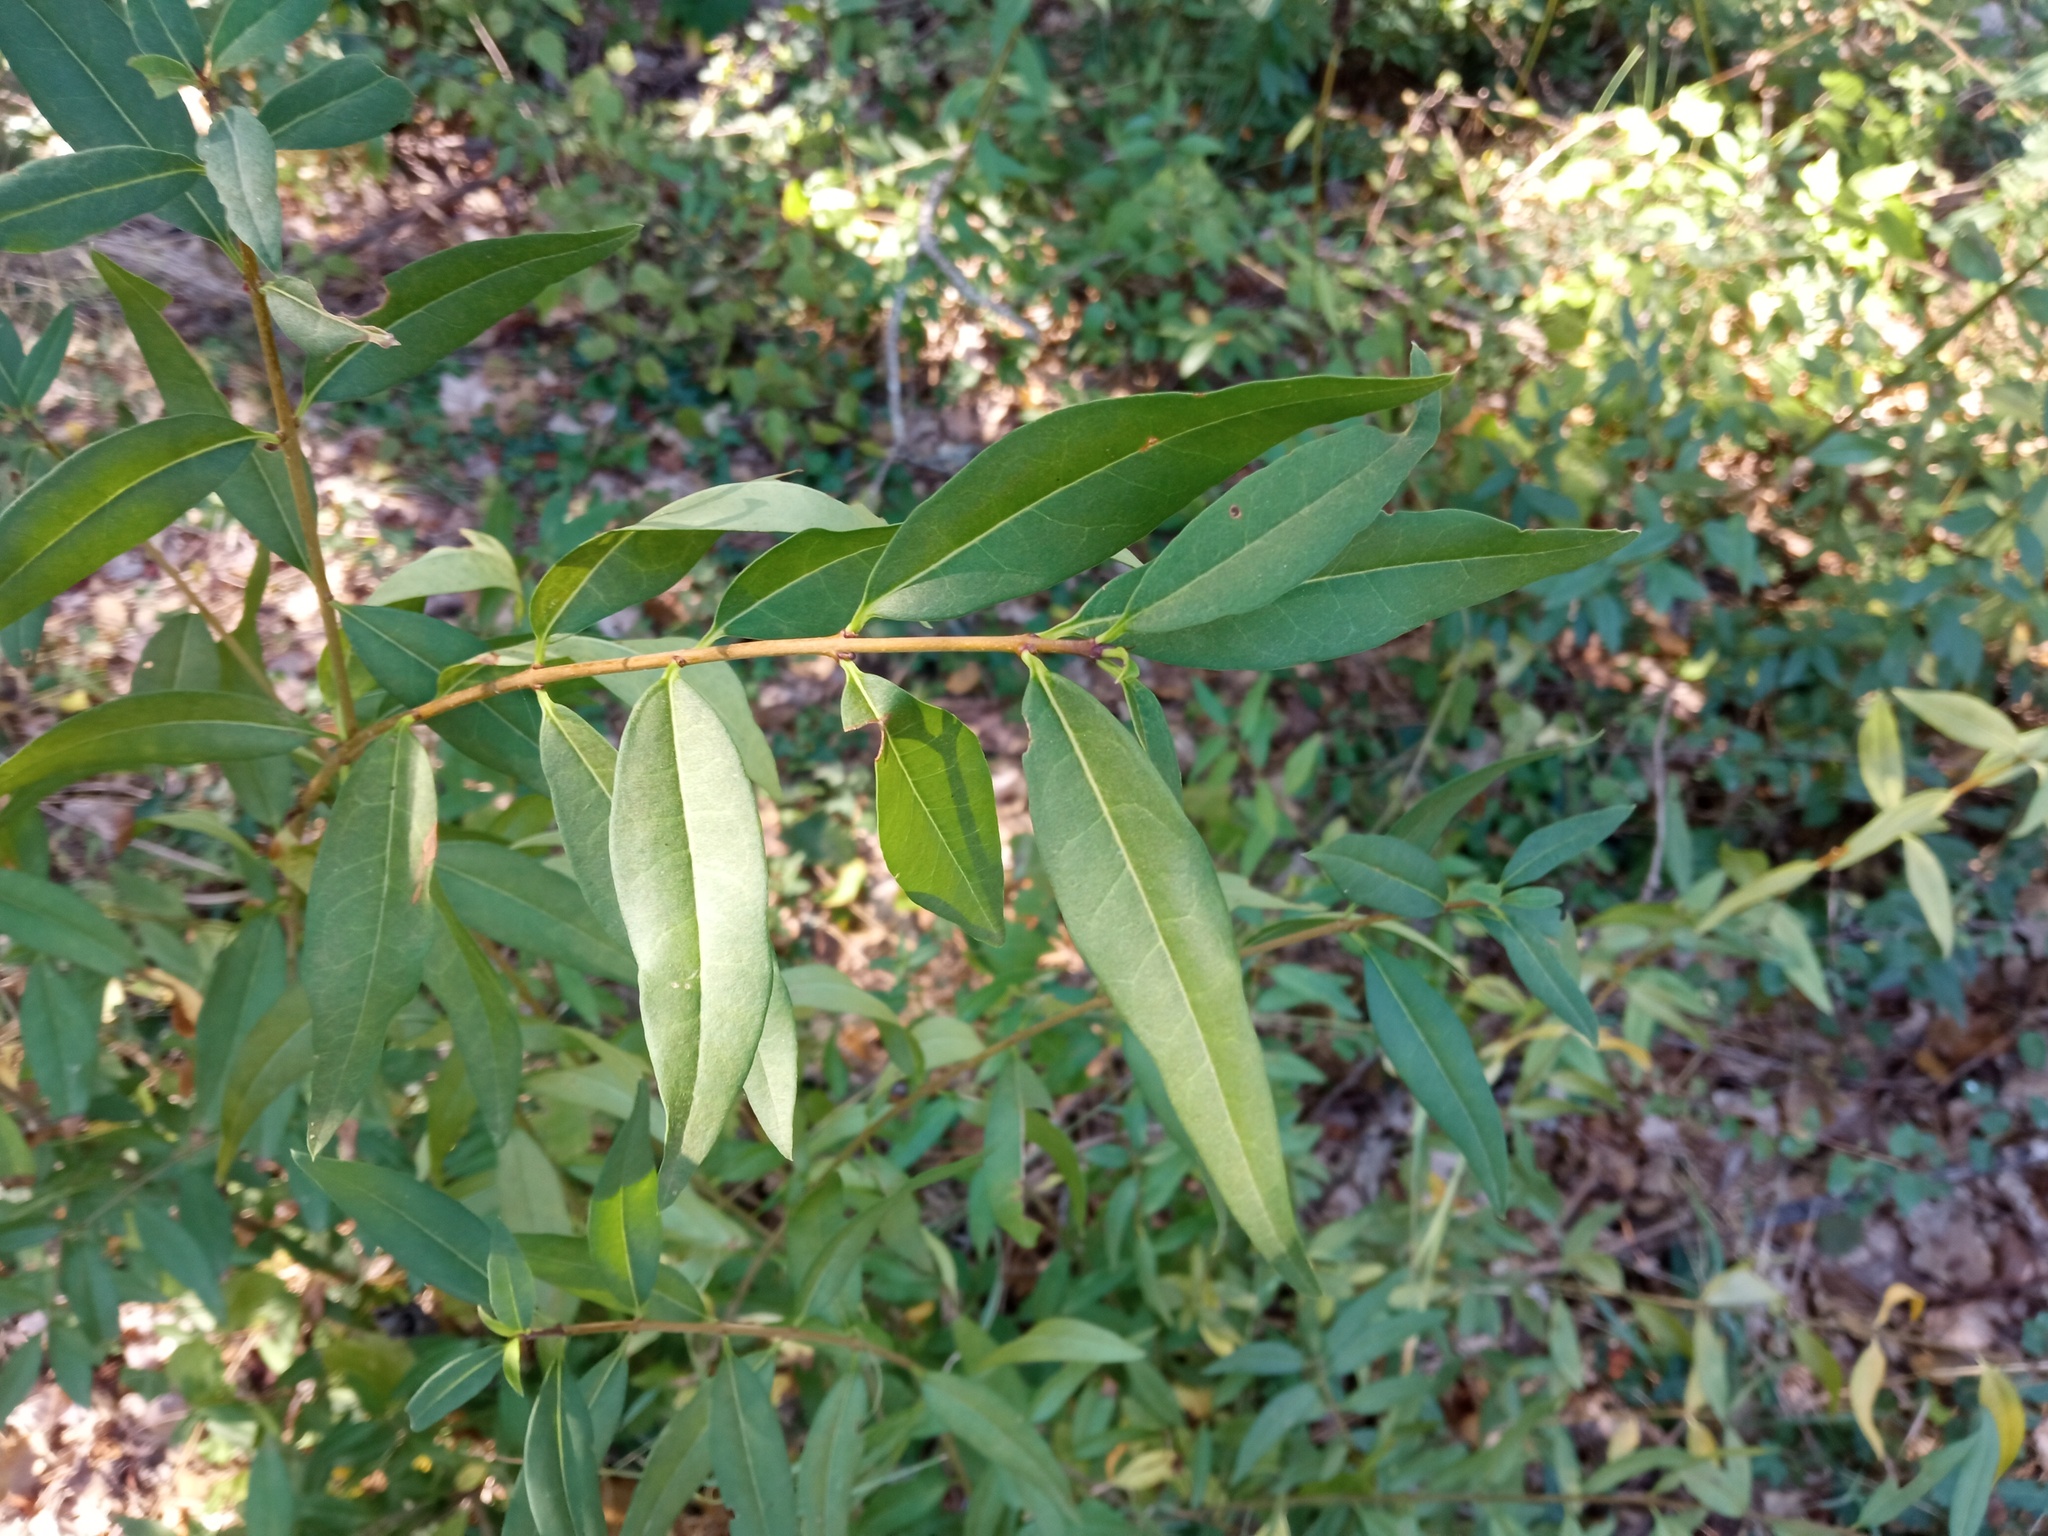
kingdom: Plantae
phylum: Tracheophyta
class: Magnoliopsida
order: Lamiales
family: Oleaceae
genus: Ligustrum
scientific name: Ligustrum vulgare
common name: Wild privet
